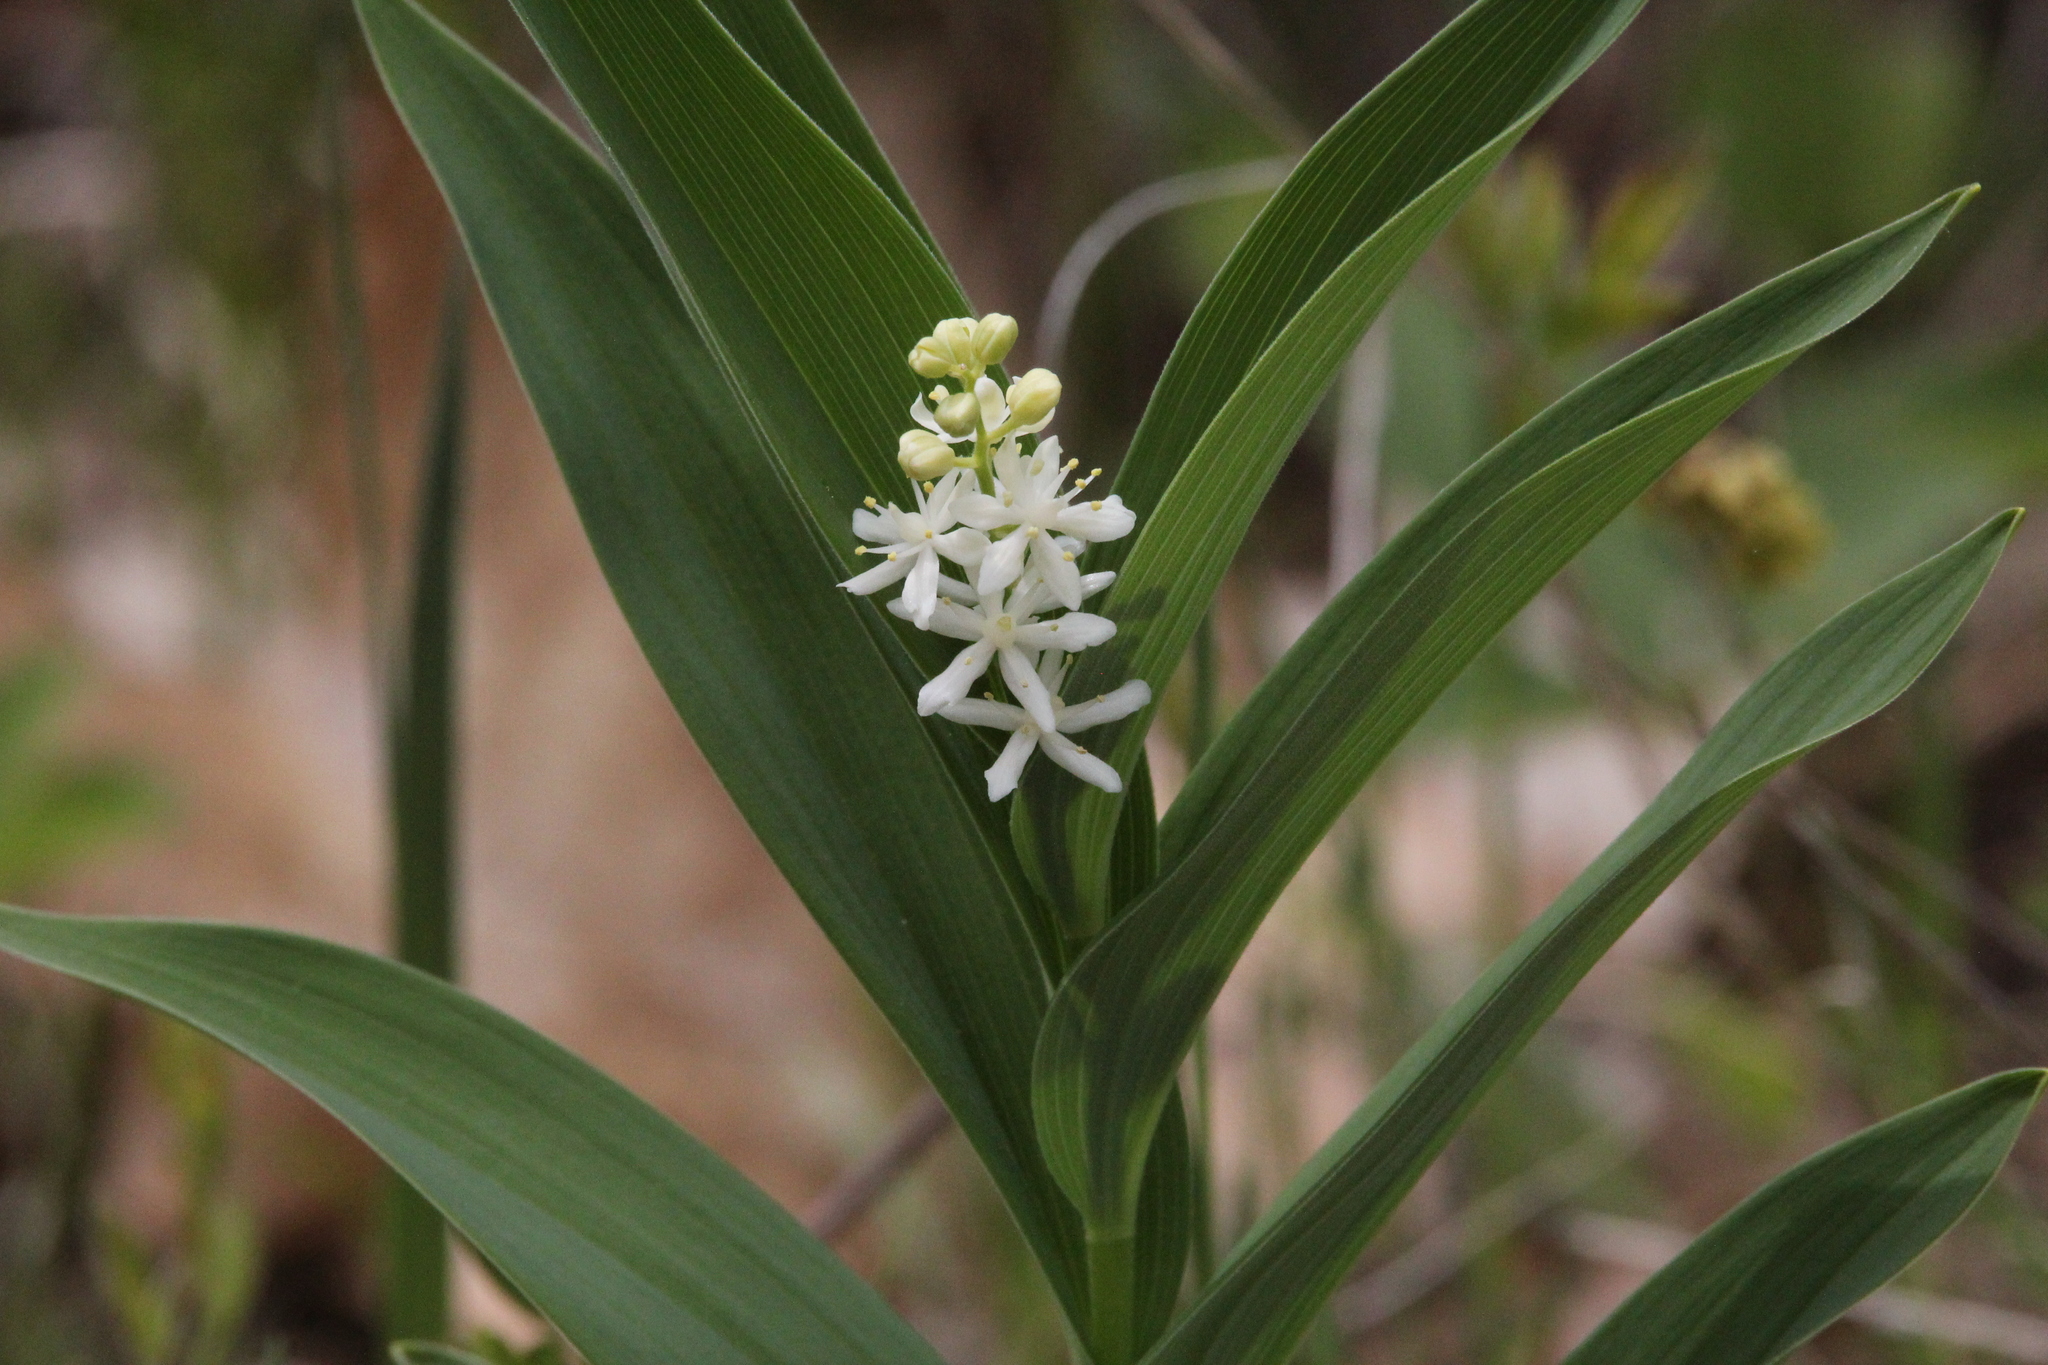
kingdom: Plantae
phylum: Tracheophyta
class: Liliopsida
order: Asparagales
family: Asparagaceae
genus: Maianthemum
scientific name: Maianthemum stellatum
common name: Little false solomon's seal
